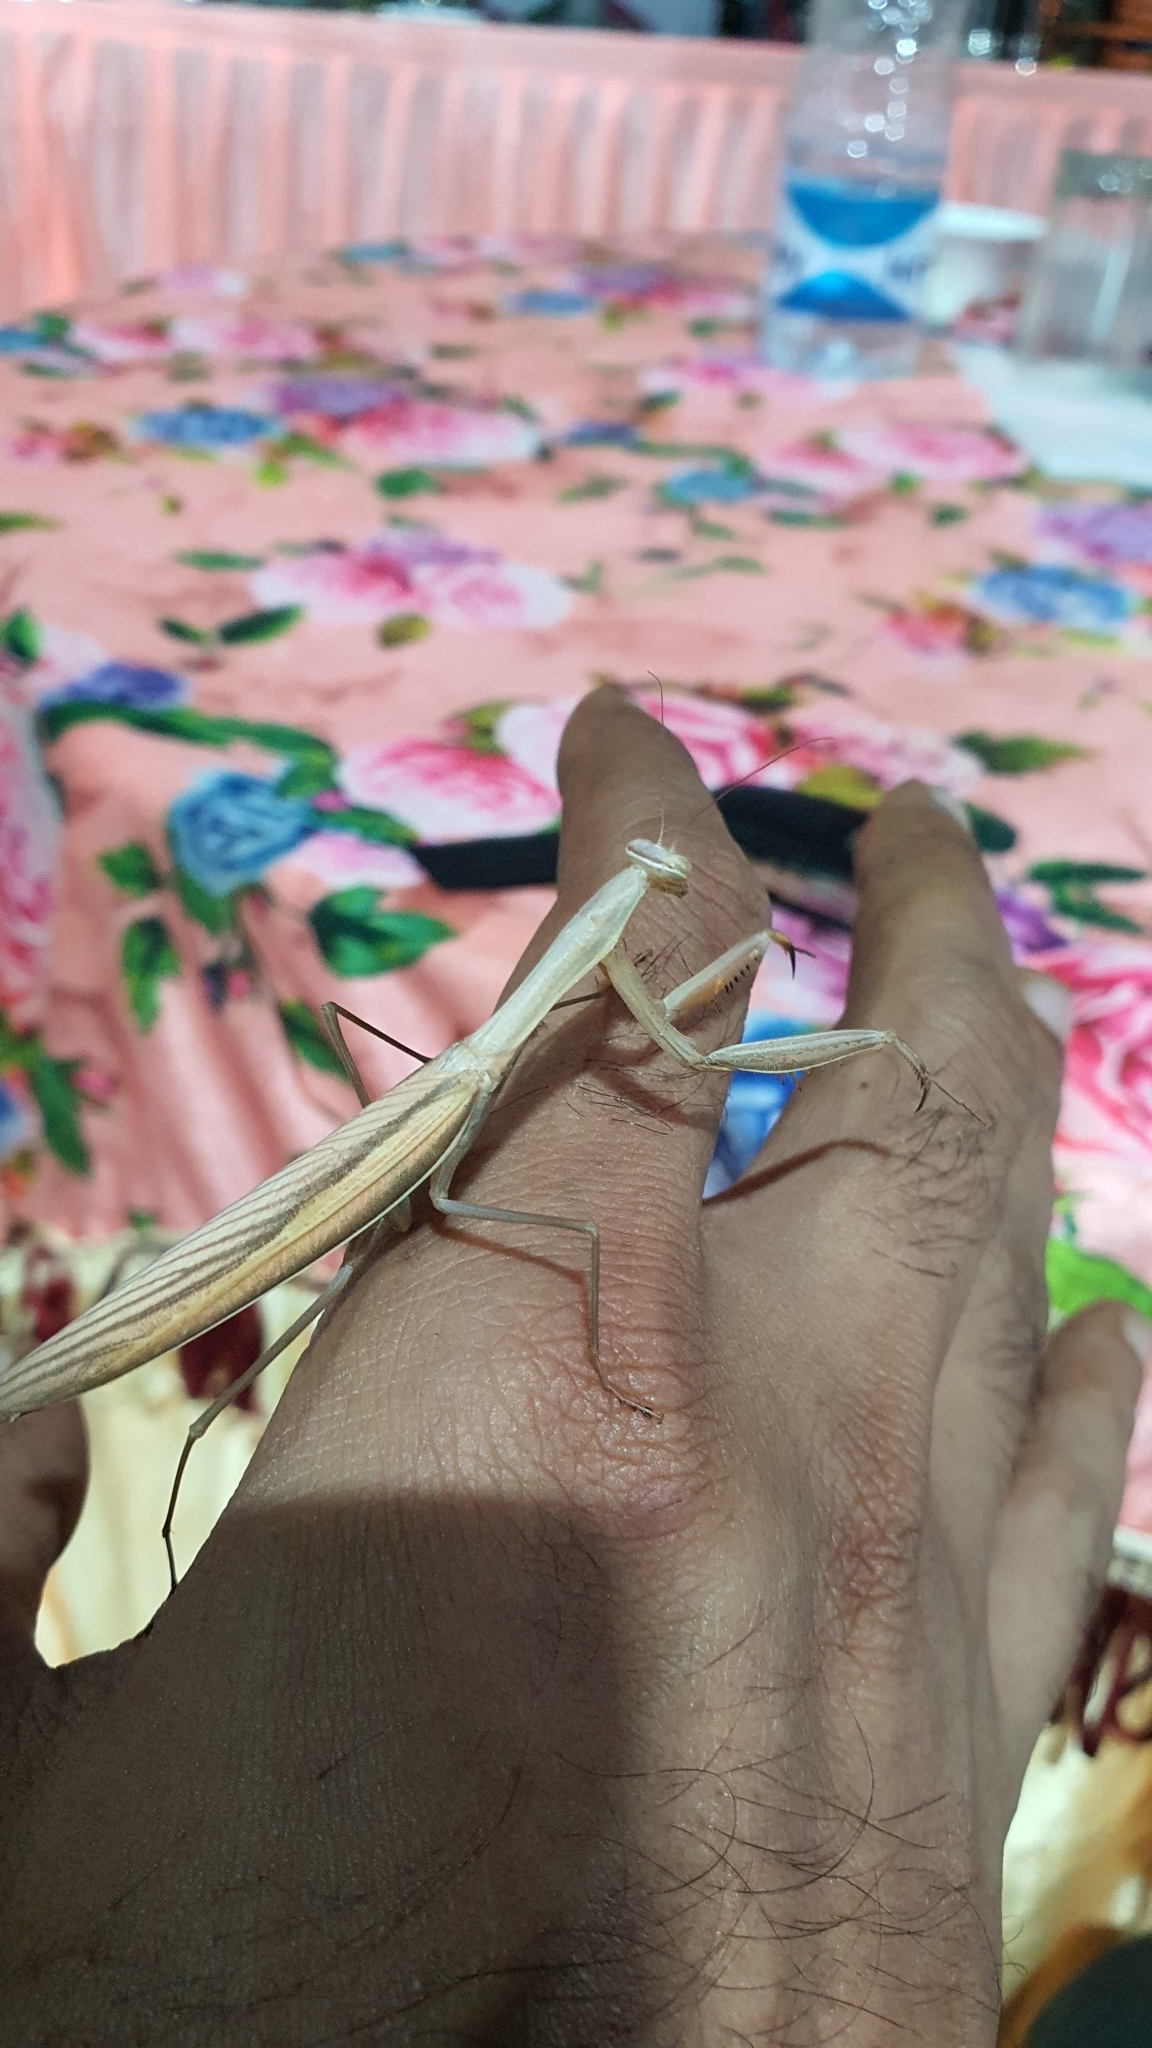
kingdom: Animalia
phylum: Arthropoda
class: Insecta
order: Mantodea
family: Mantidae
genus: Mantis
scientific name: Mantis religiosa
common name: Praying mantis
